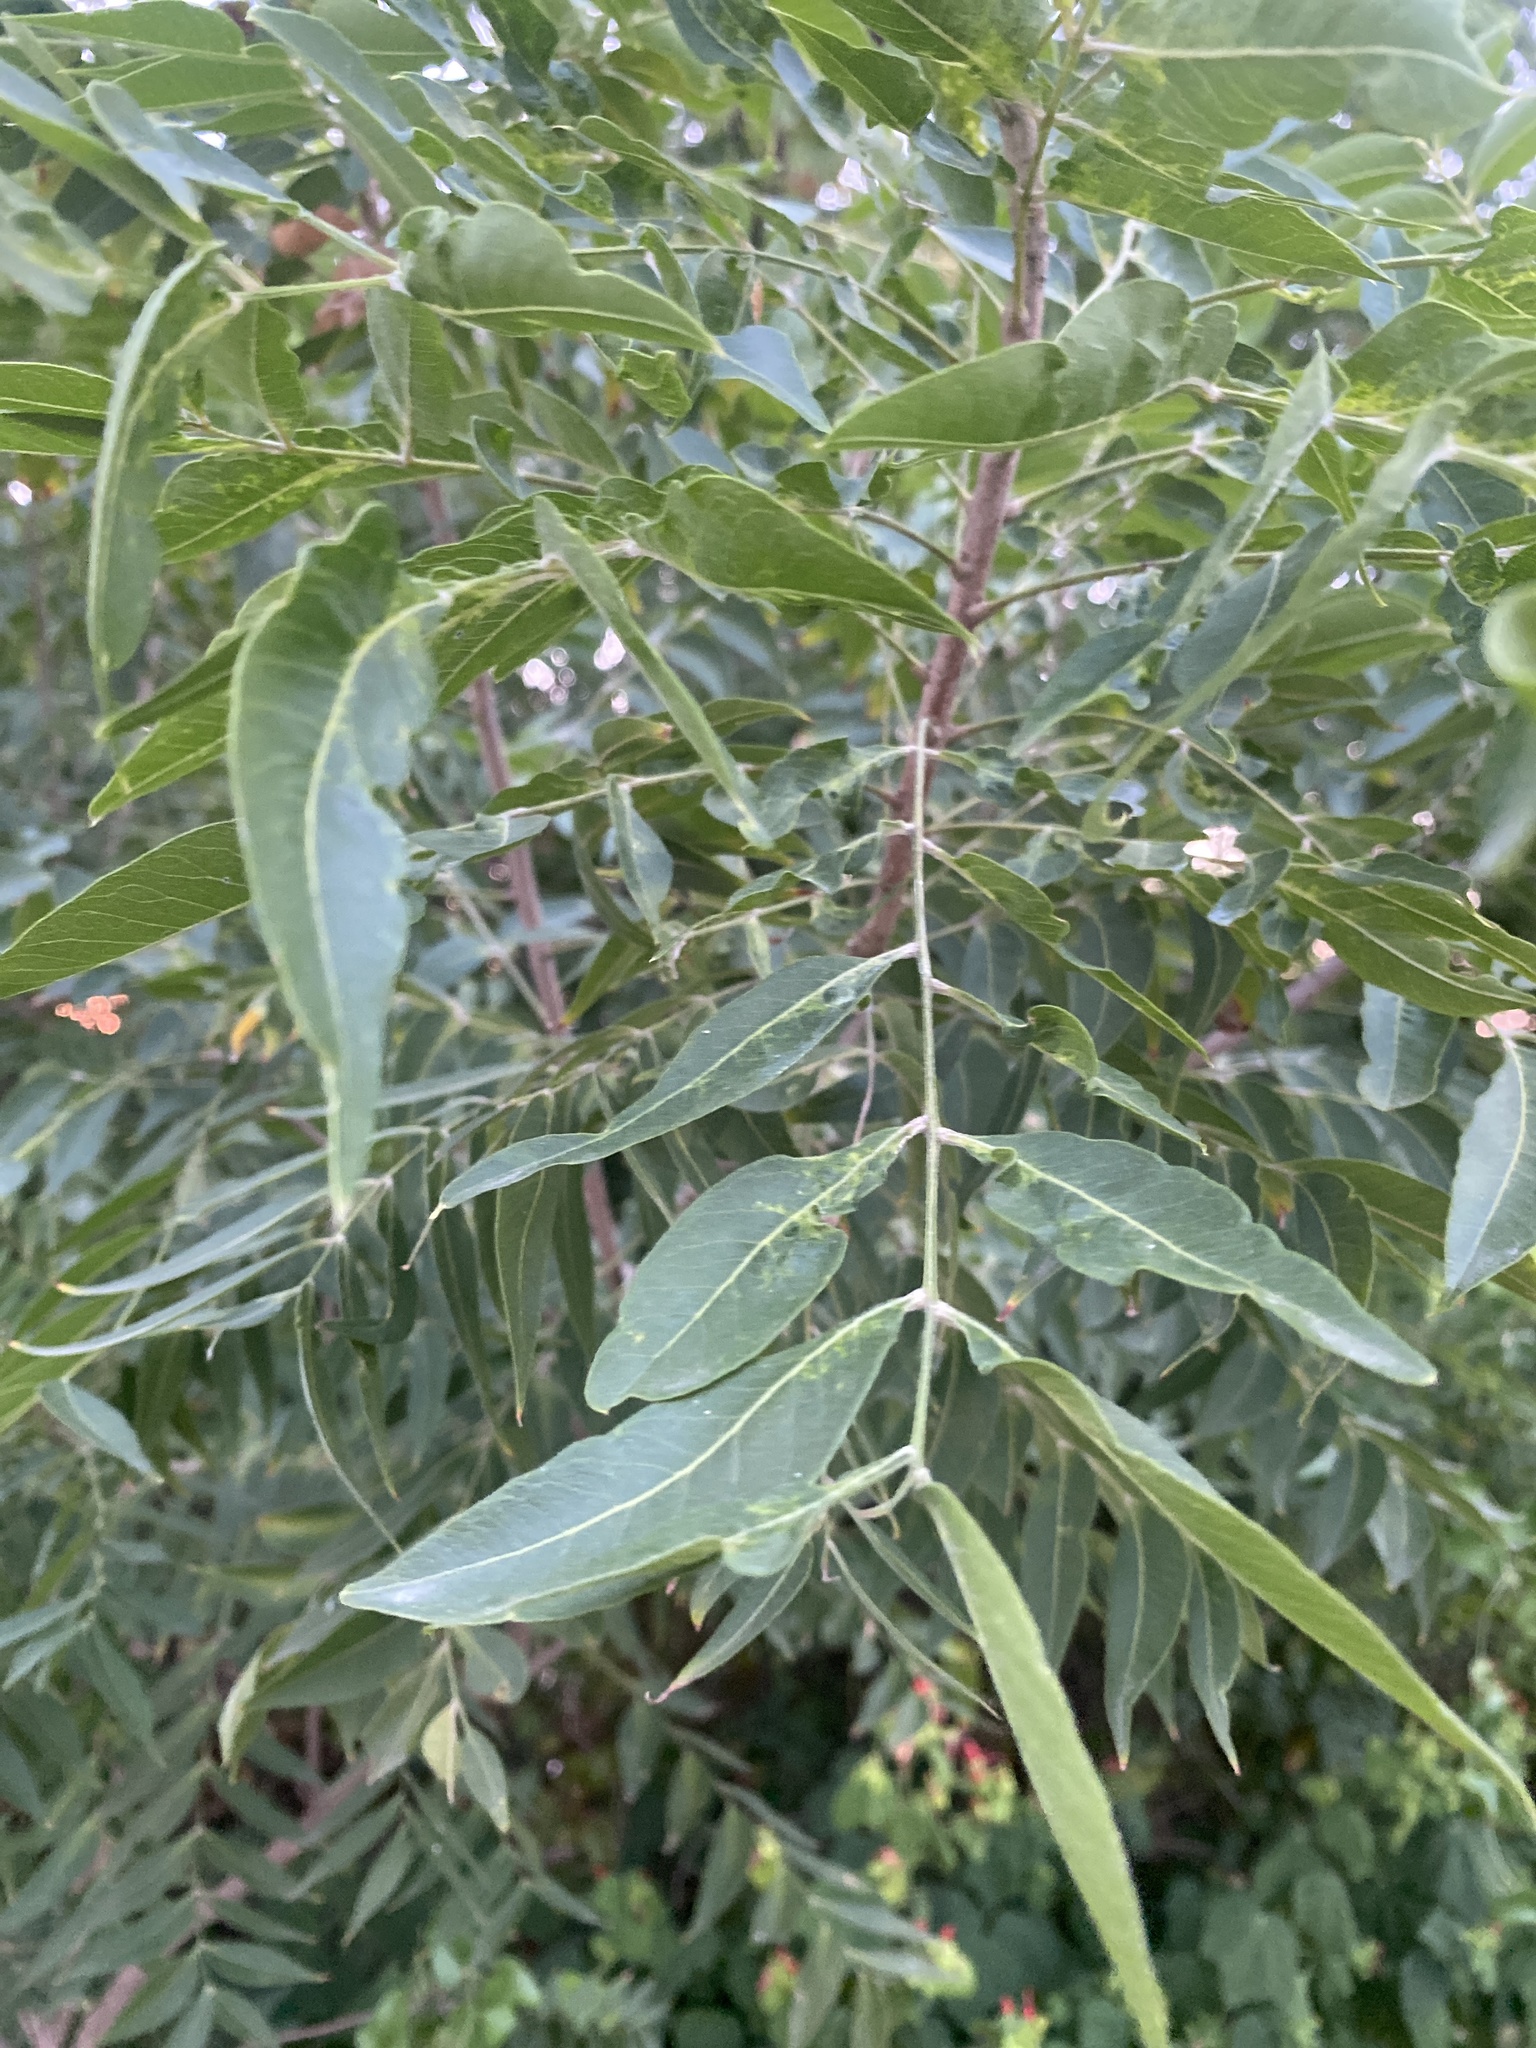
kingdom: Plantae
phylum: Tracheophyta
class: Magnoliopsida
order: Sapindales
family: Sapindaceae
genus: Sapindus
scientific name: Sapindus drummondii
